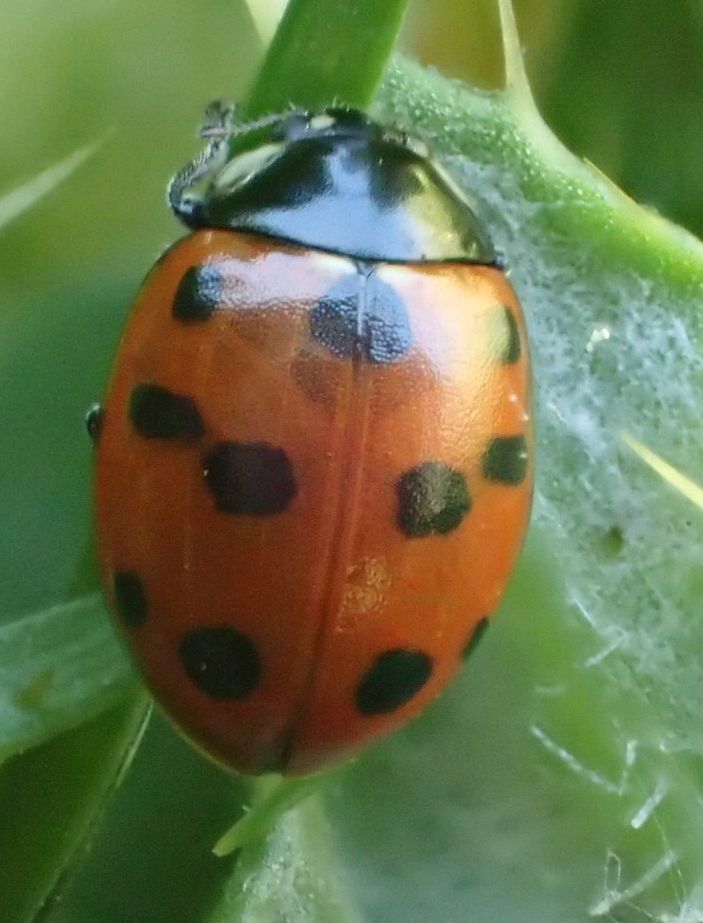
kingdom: Animalia
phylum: Arthropoda
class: Insecta
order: Coleoptera
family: Coccinellidae
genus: Coccinella
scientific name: Coccinella undecimpunctata
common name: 11-spot ladybird
